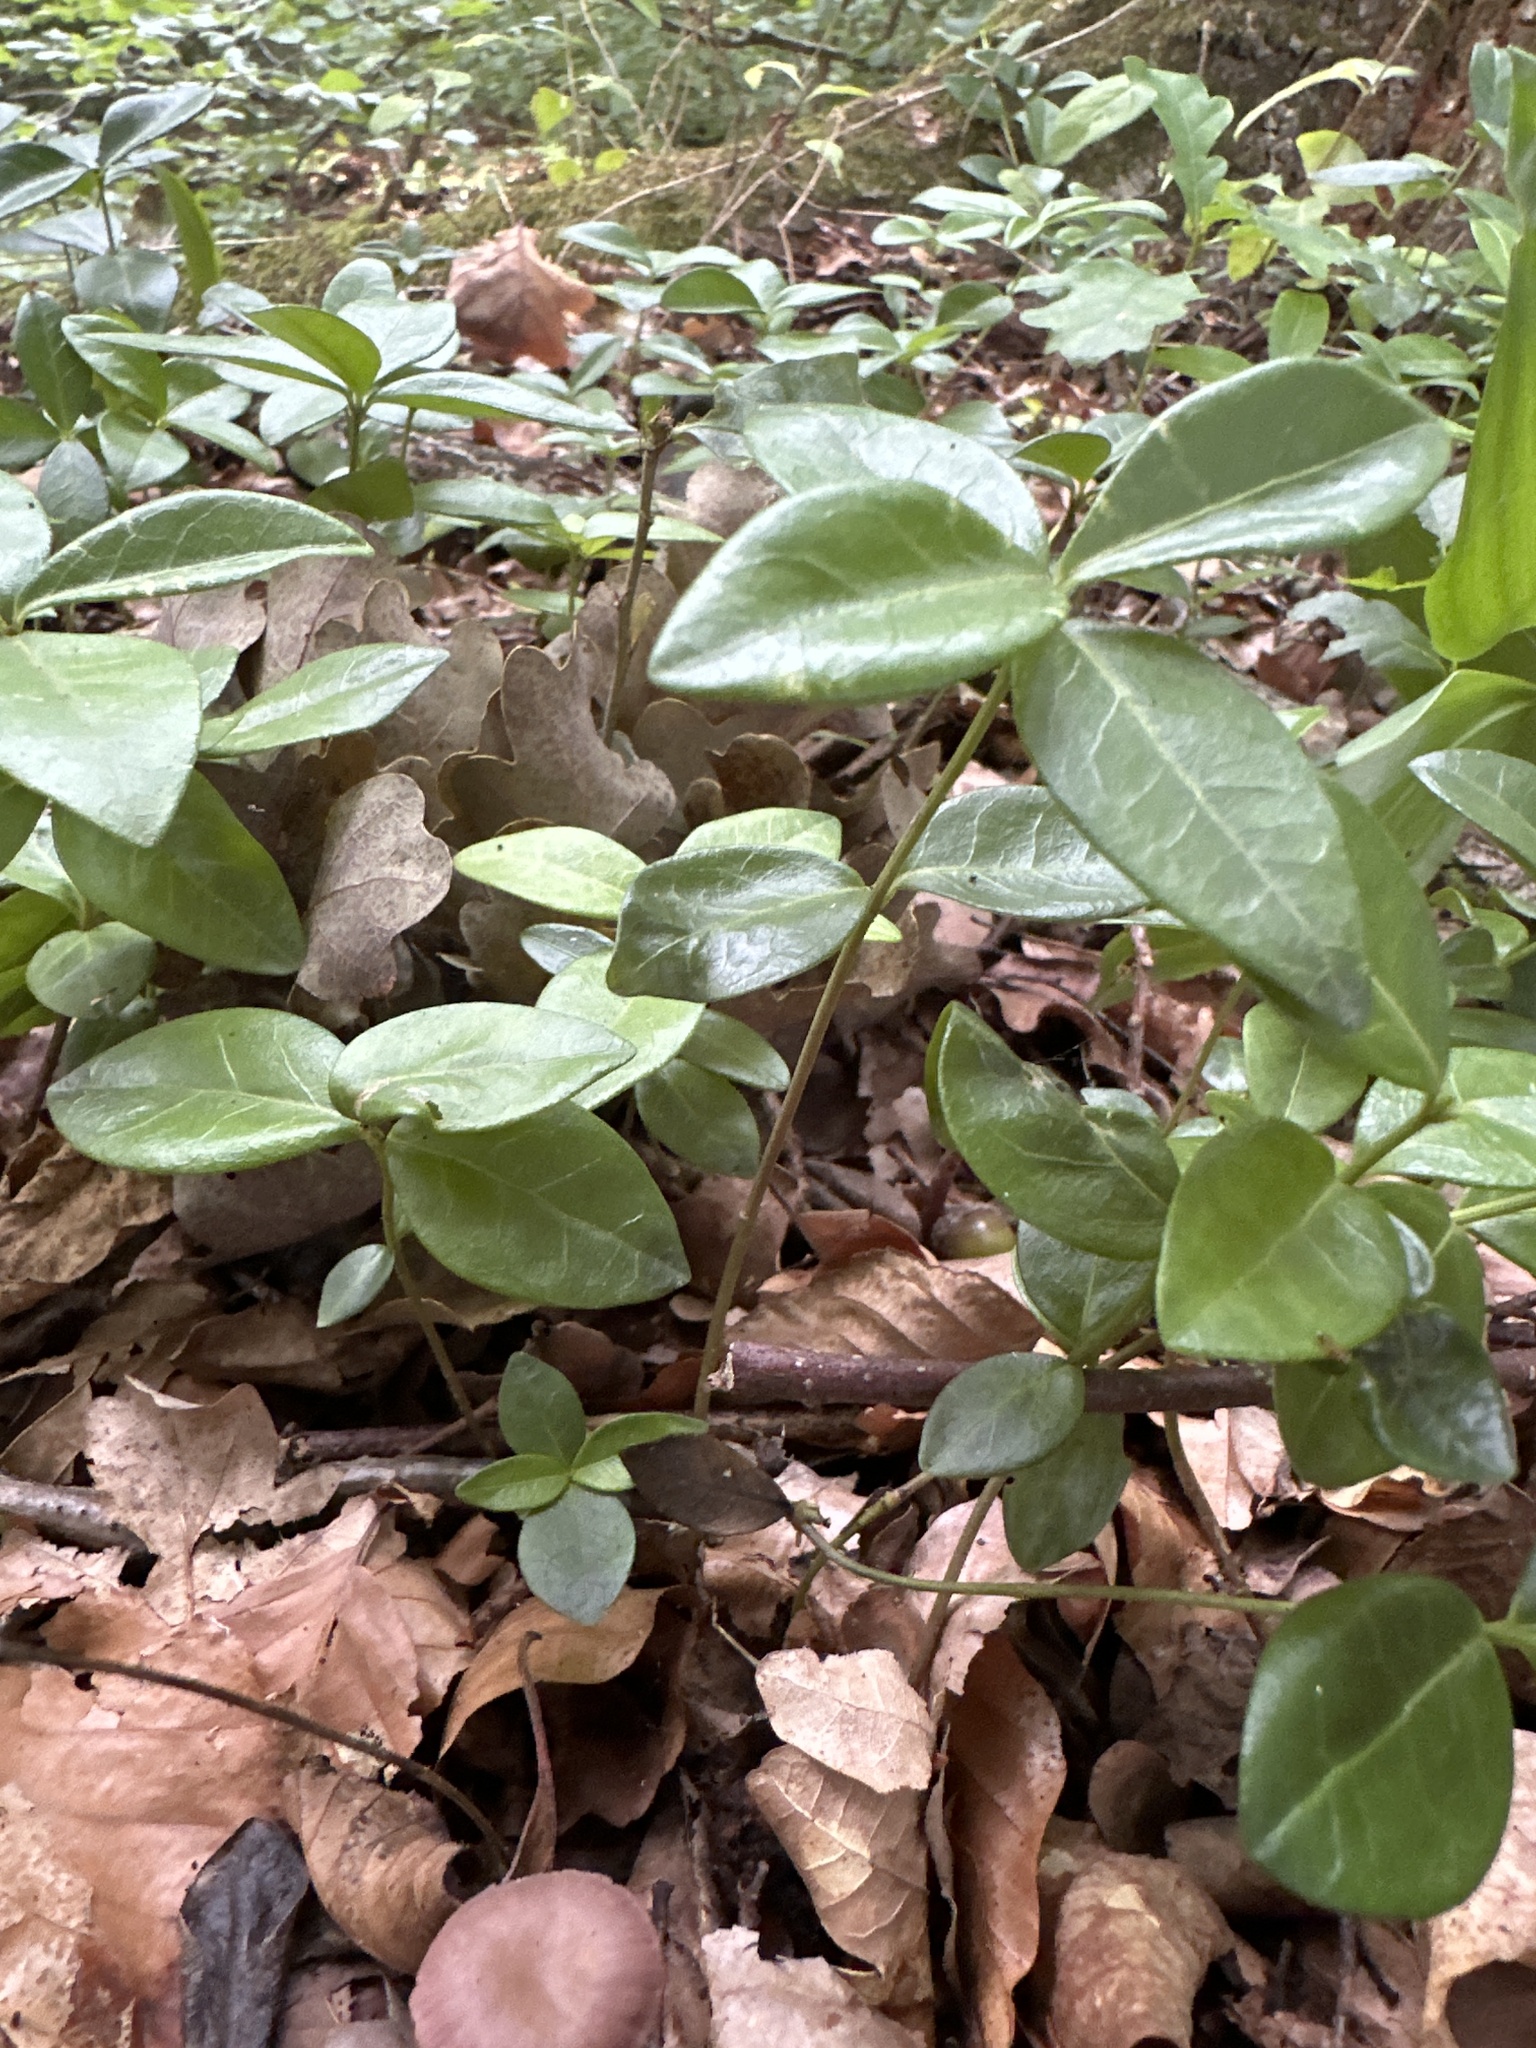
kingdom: Plantae
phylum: Tracheophyta
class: Magnoliopsida
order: Gentianales
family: Apocynaceae
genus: Vinca
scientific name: Vinca minor
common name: Lesser periwinkle
